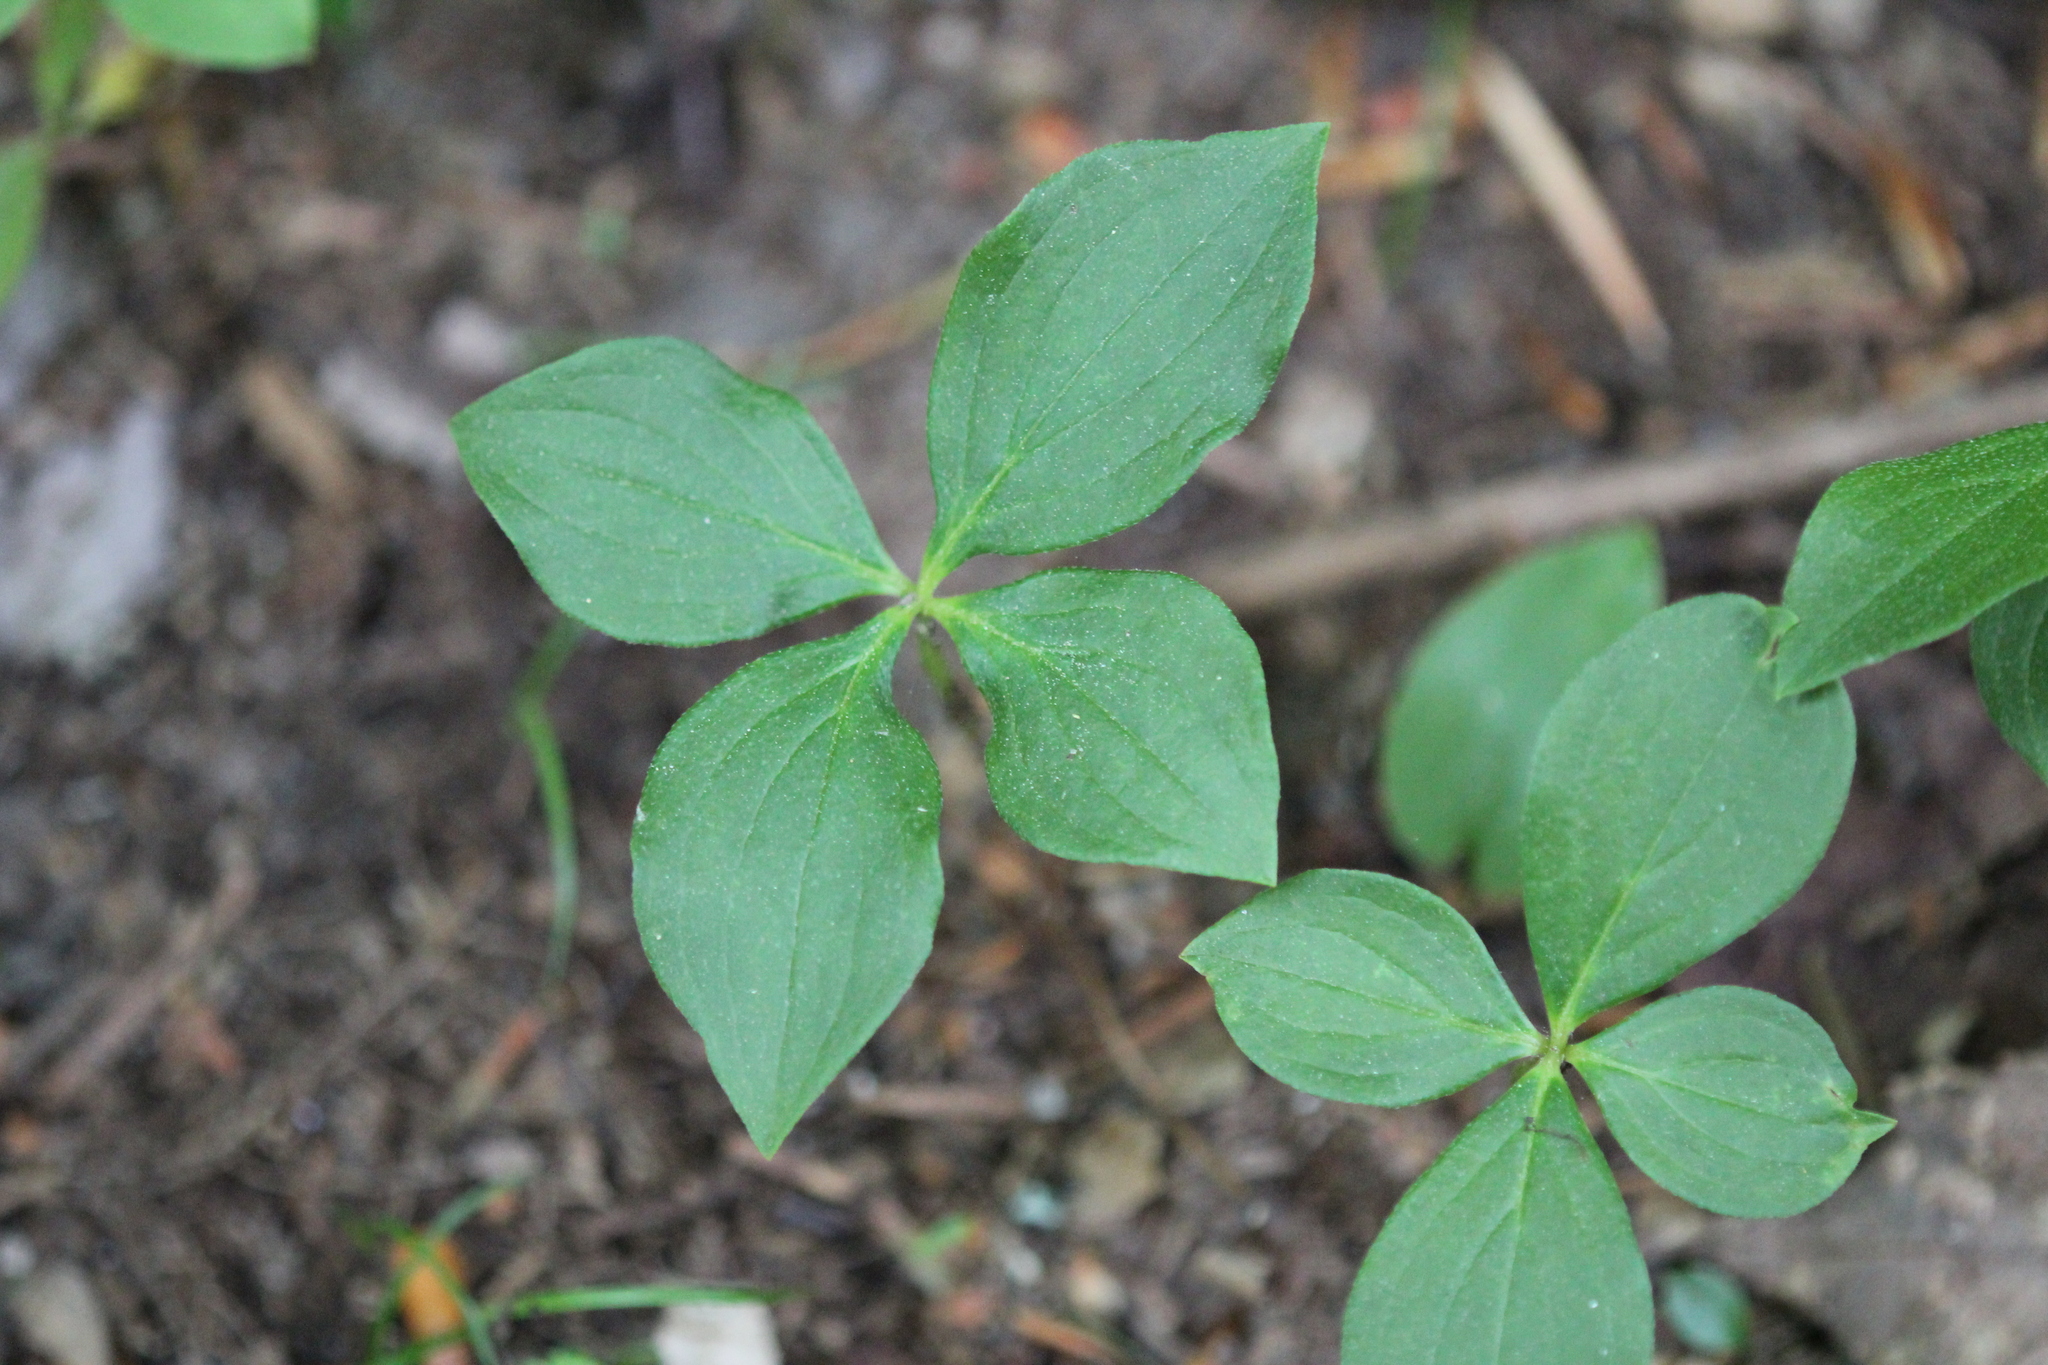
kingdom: Plantae
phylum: Tracheophyta
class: Magnoliopsida
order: Cornales
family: Cornaceae
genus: Cornus
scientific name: Cornus canadensis
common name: Creeping dogwood
